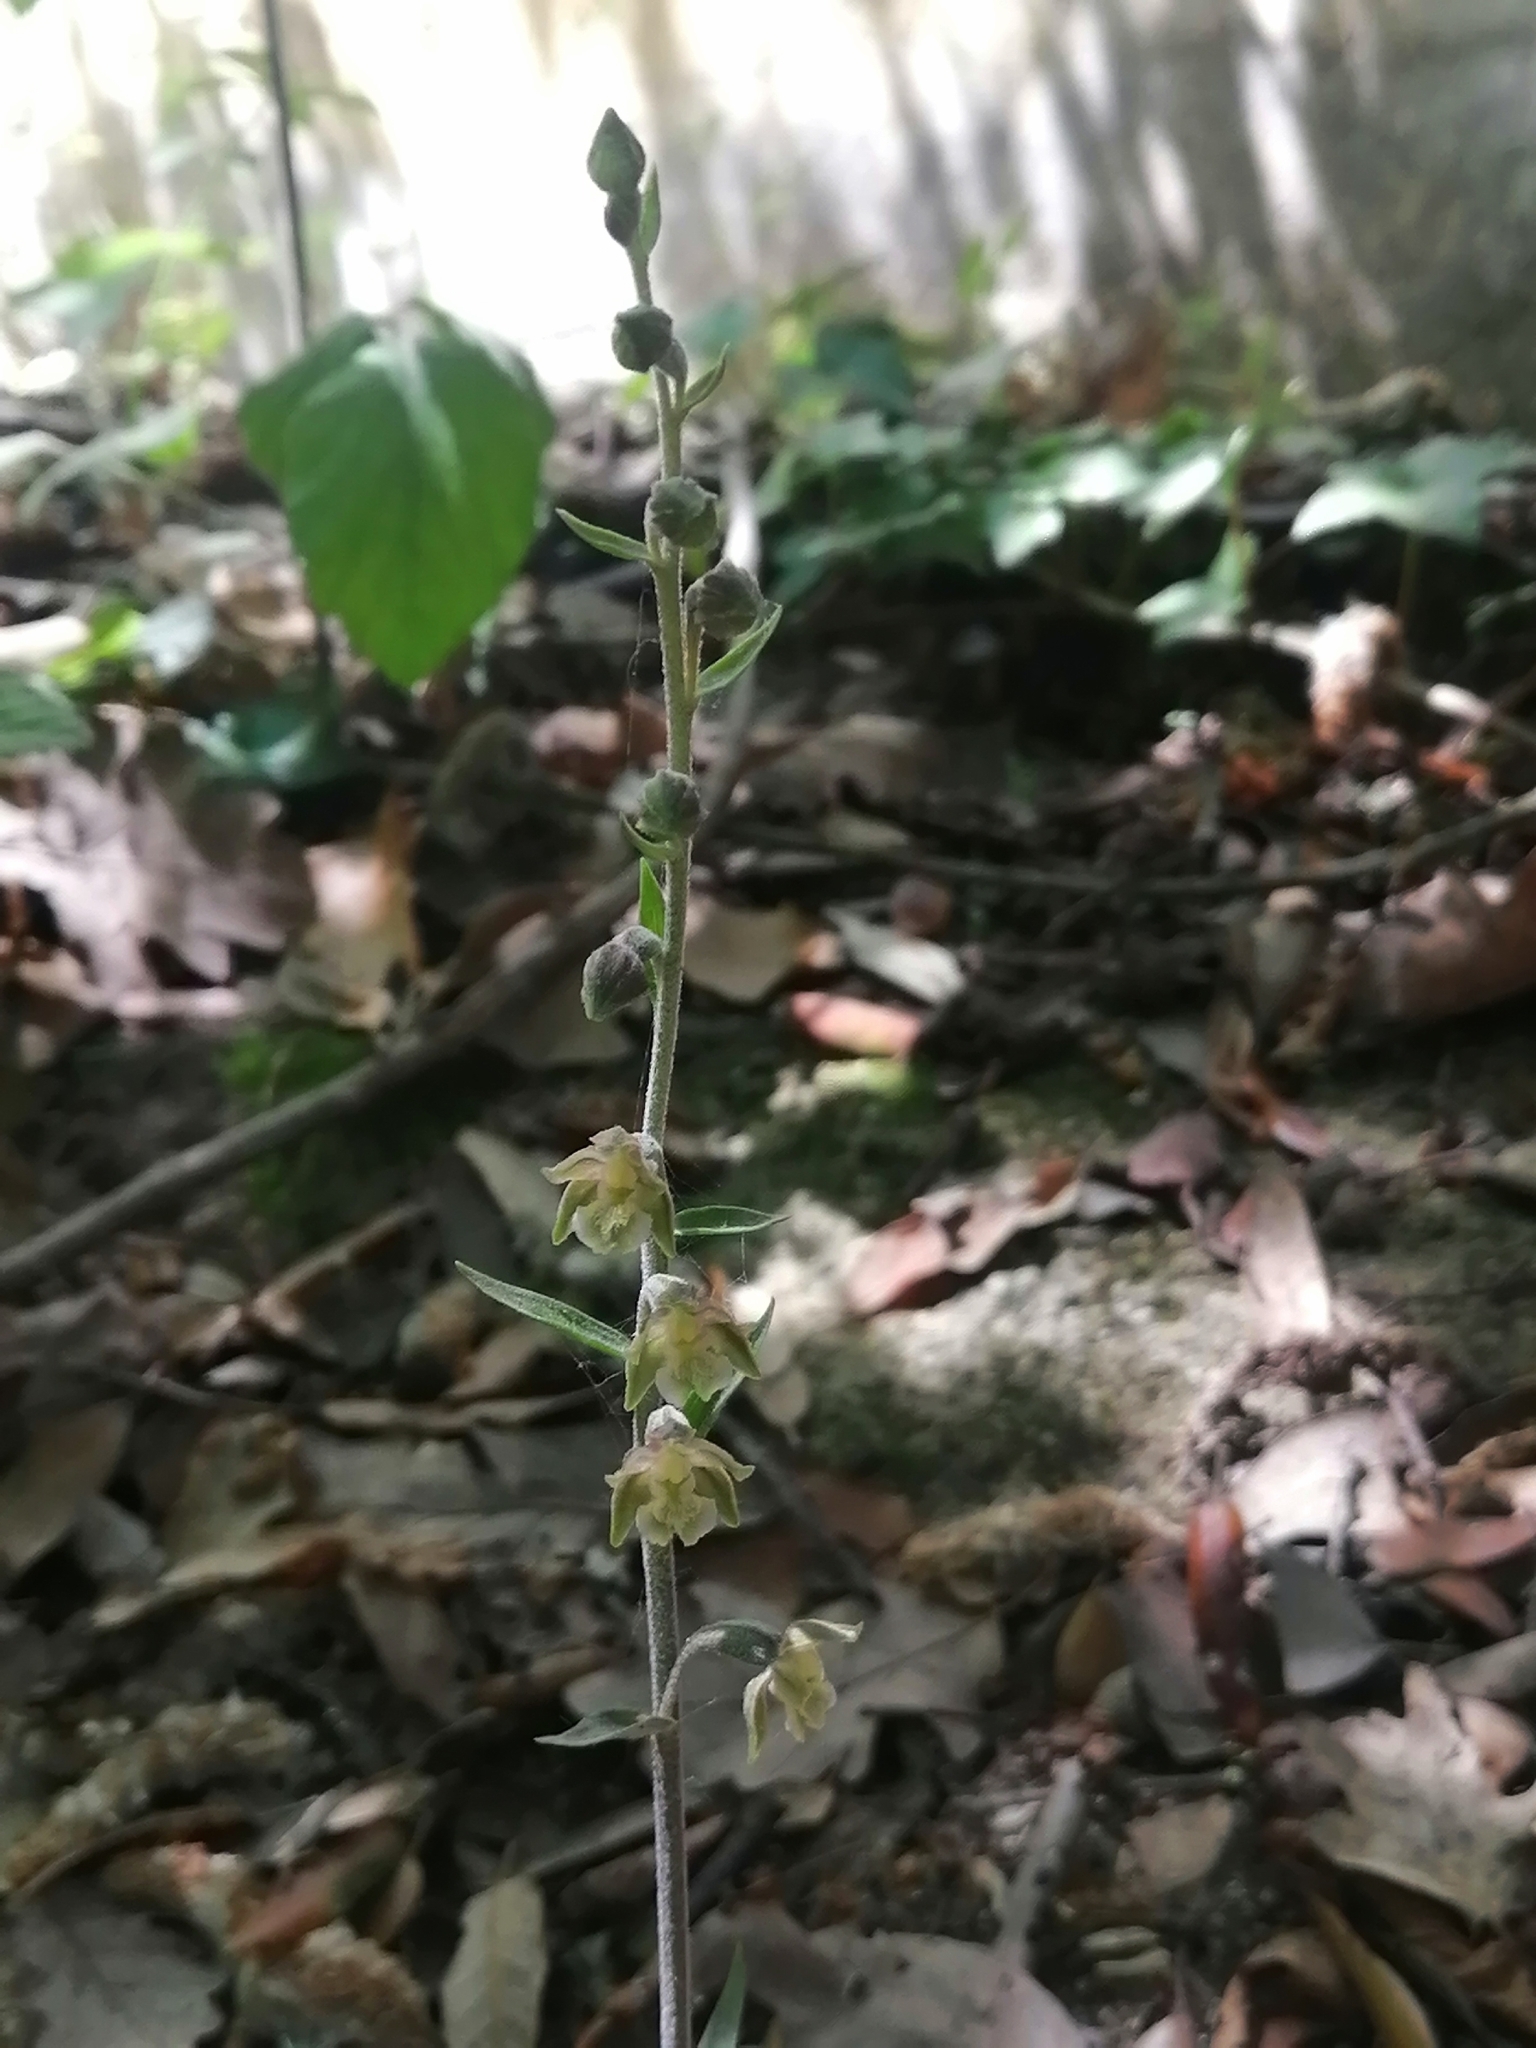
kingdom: Plantae
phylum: Tracheophyta
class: Liliopsida
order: Asparagales
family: Orchidaceae
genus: Epipactis
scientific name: Epipactis microphylla
